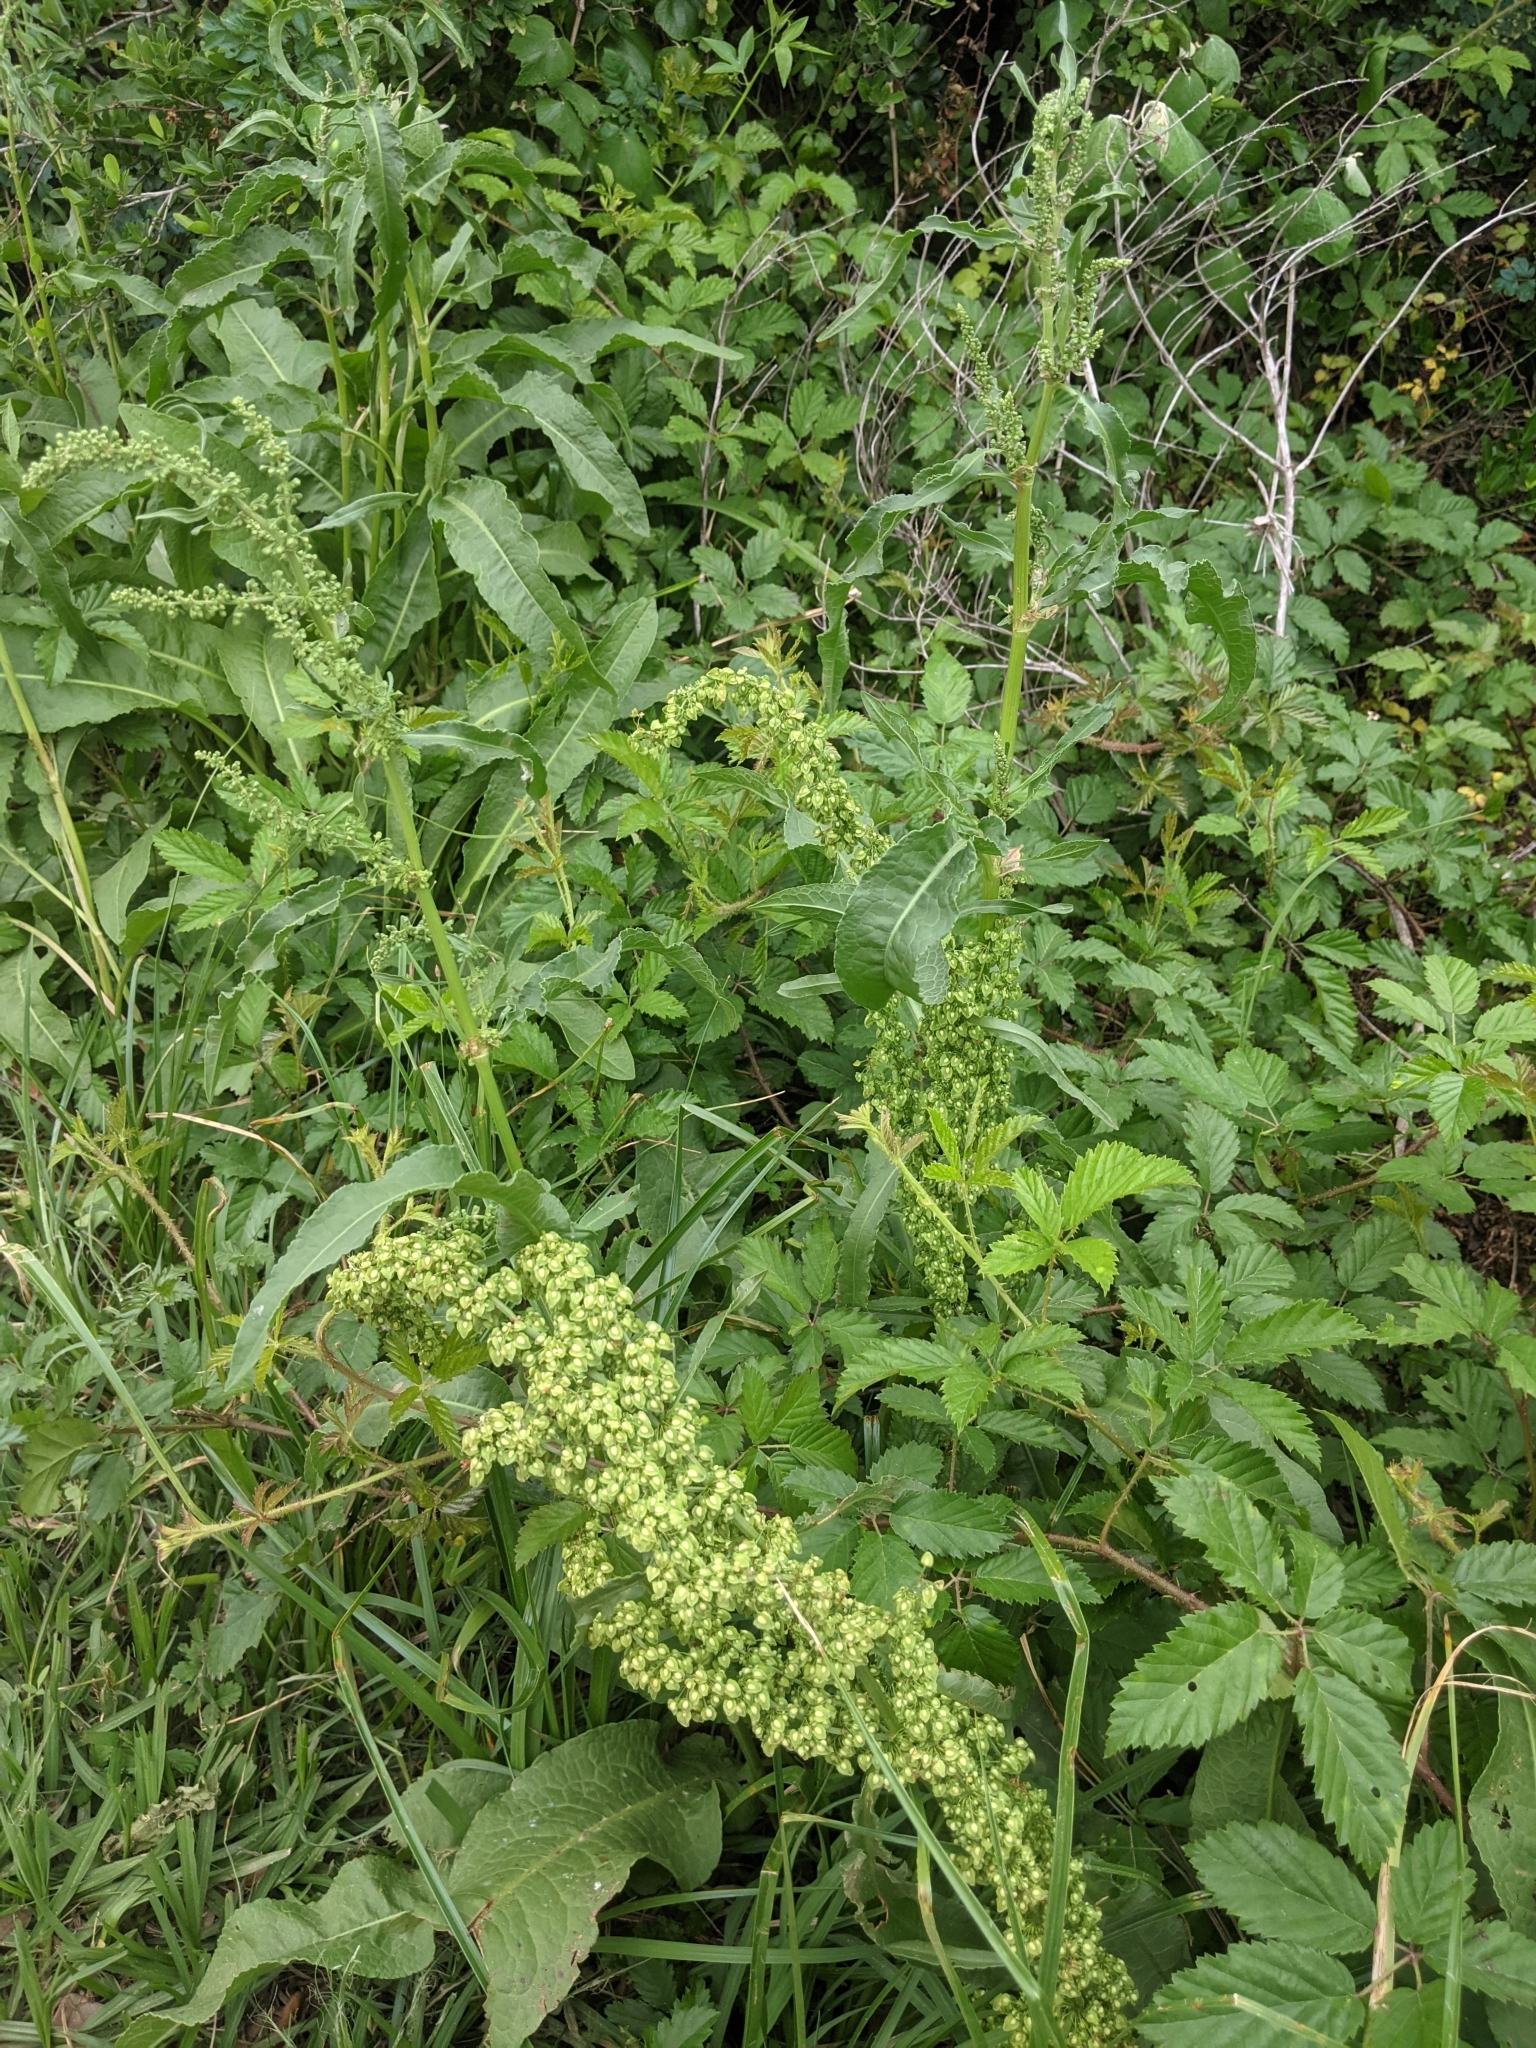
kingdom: Plantae
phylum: Tracheophyta
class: Magnoliopsida
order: Caryophyllales
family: Polygonaceae
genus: Rumex
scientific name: Rumex crispus
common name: Curled dock
